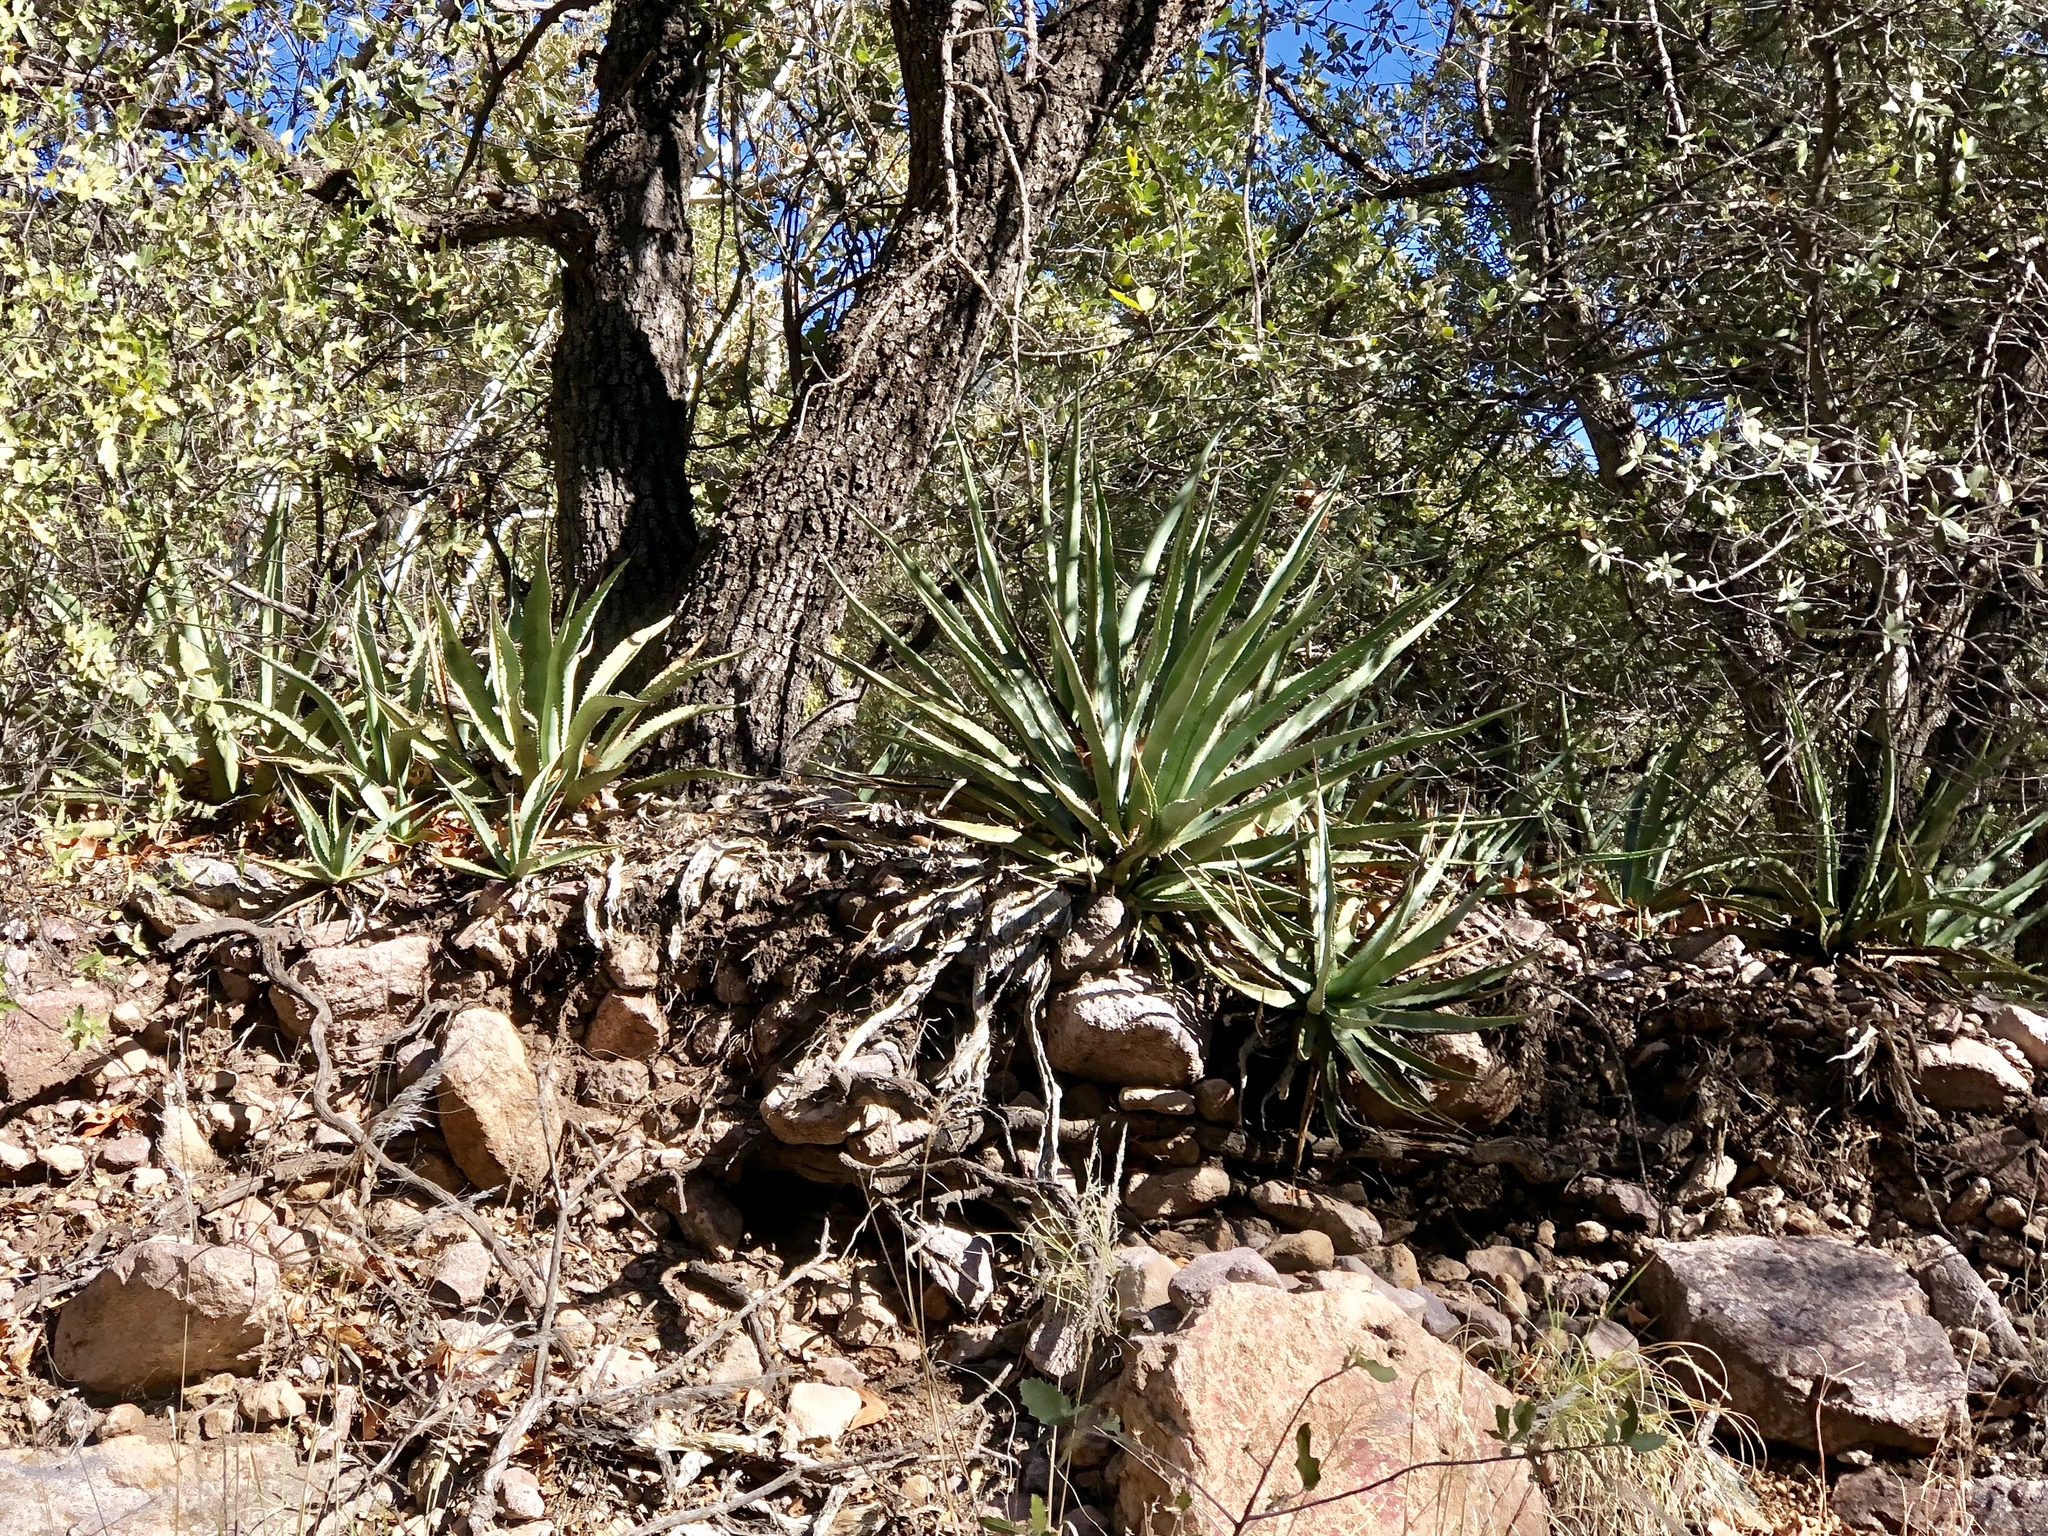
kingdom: Plantae
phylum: Tracheophyta
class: Liliopsida
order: Asparagales
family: Asparagaceae
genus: Agave
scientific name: Agave palmeri
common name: Palmer agave
